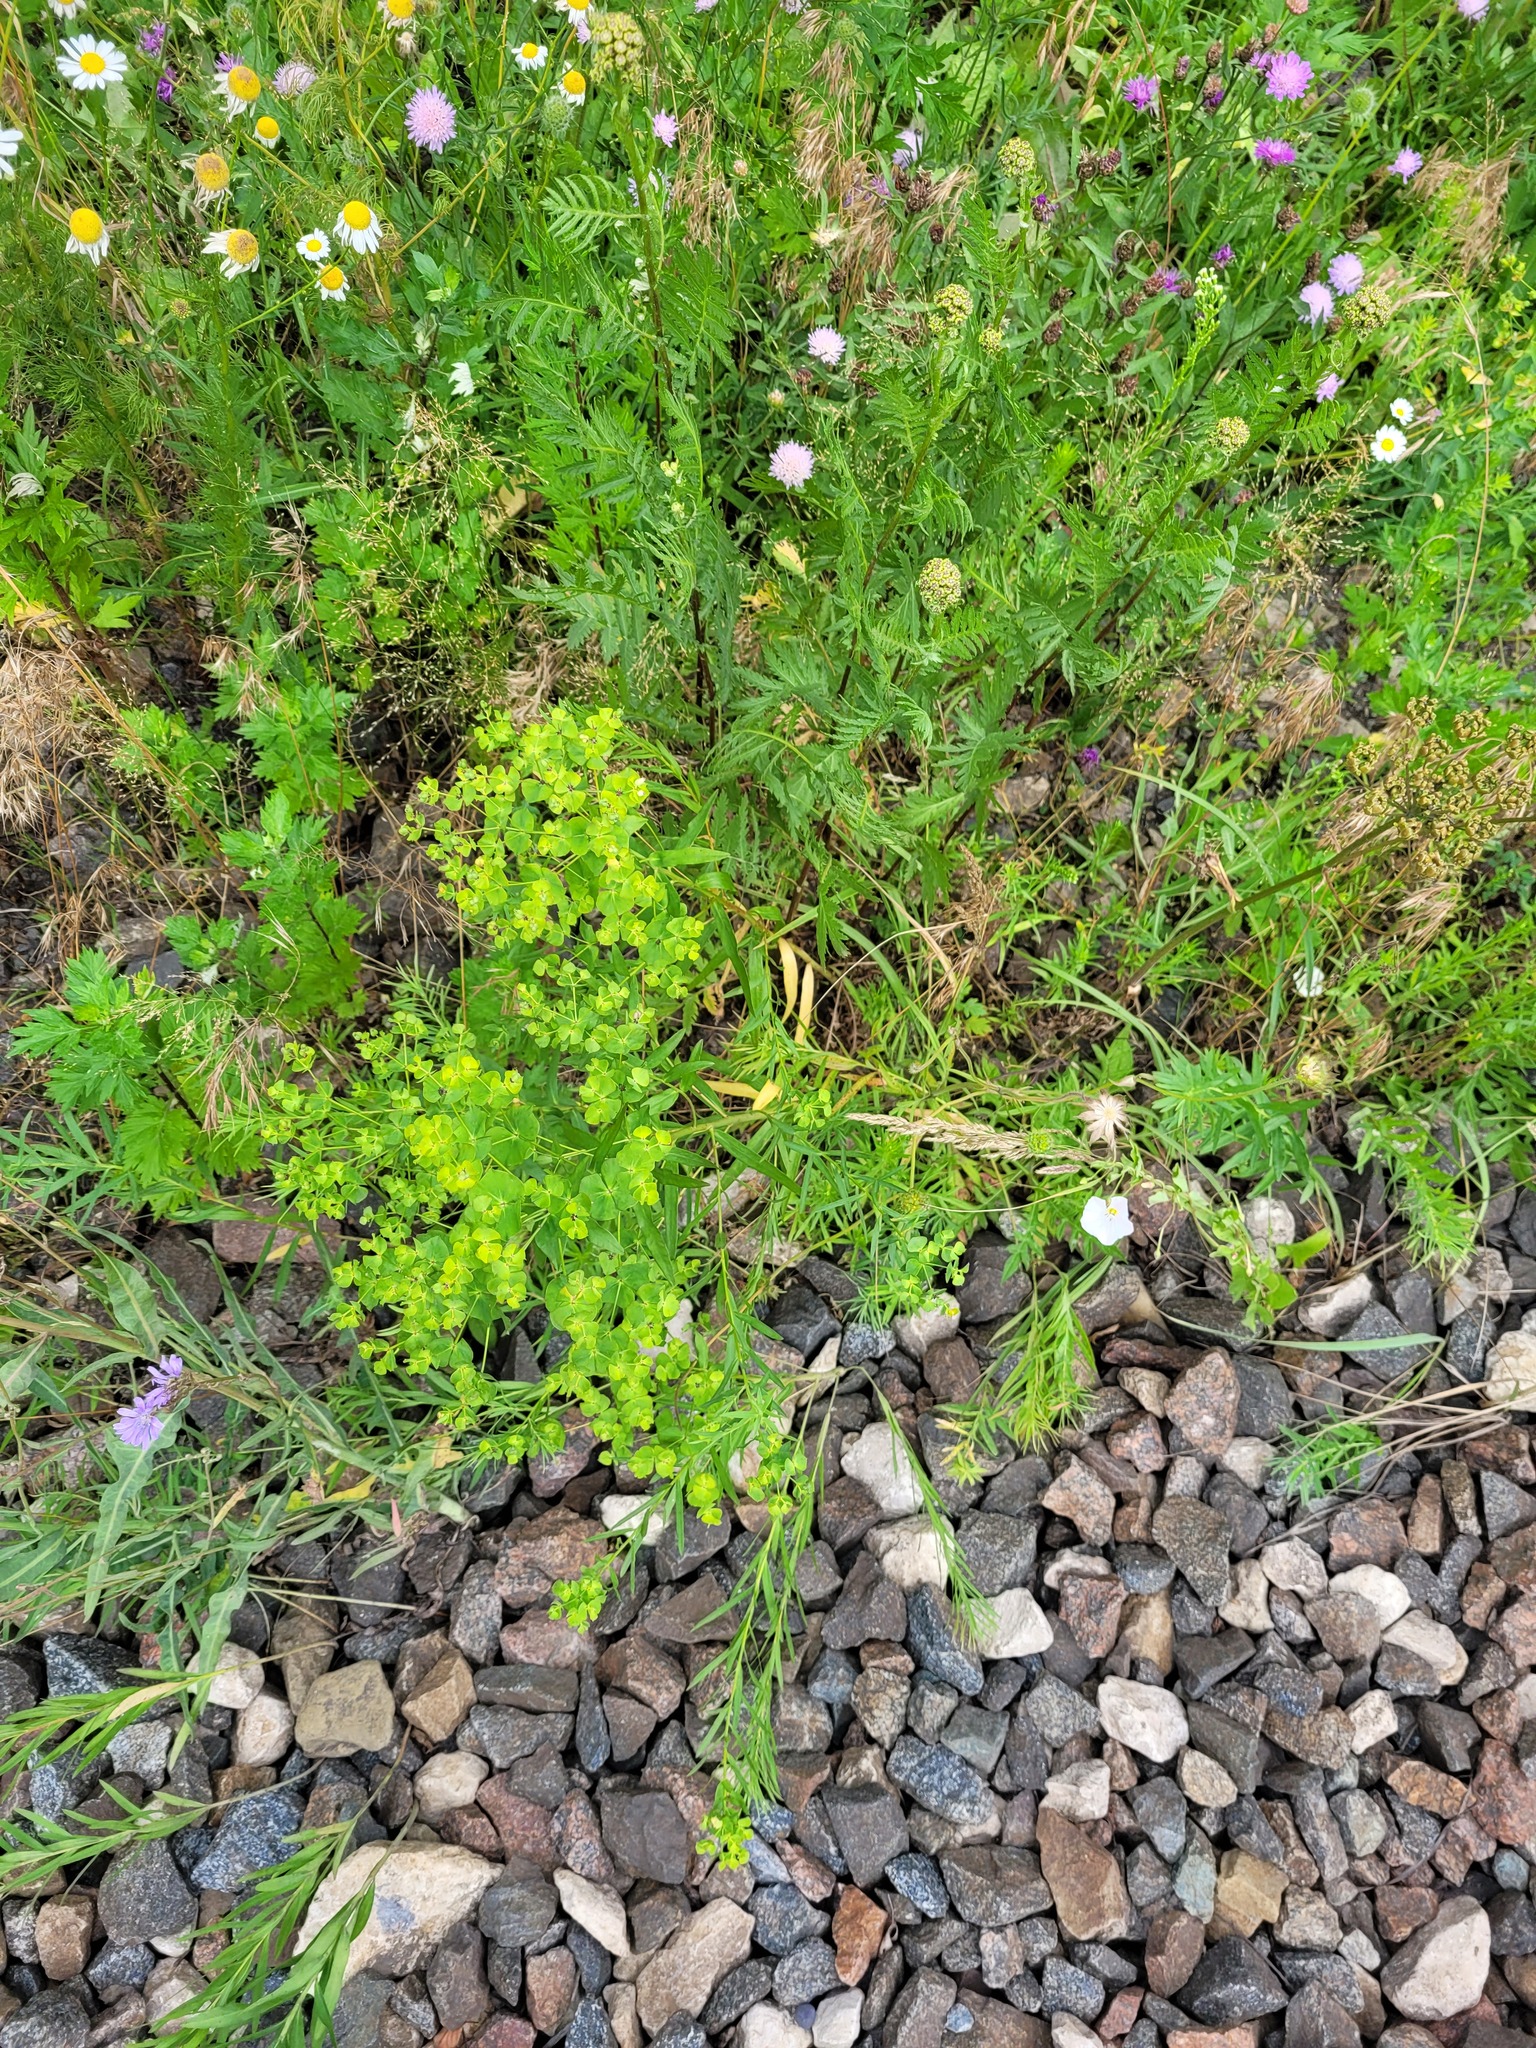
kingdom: Plantae
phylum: Tracheophyta
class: Magnoliopsida
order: Malpighiales
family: Euphorbiaceae
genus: Euphorbia
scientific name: Euphorbia virgata
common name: Leafy spurge
